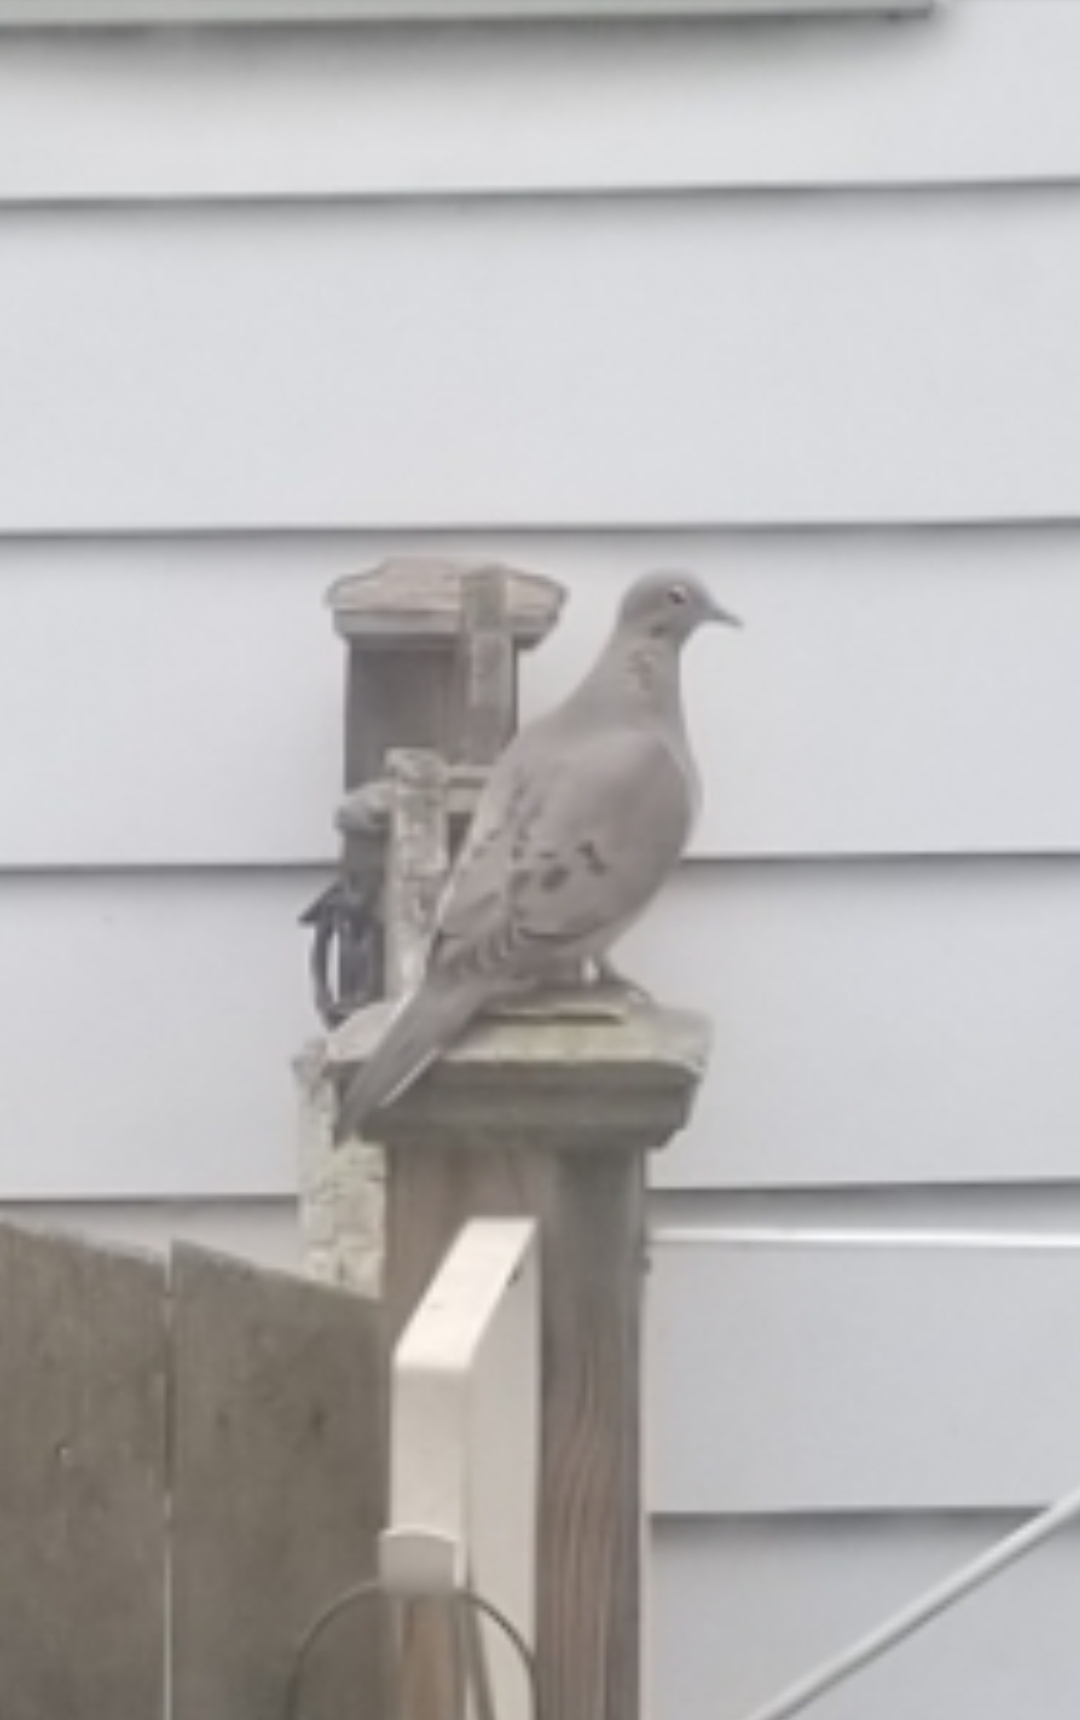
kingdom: Animalia
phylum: Chordata
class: Aves
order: Columbiformes
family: Columbidae
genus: Zenaida
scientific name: Zenaida macroura
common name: Mourning dove
